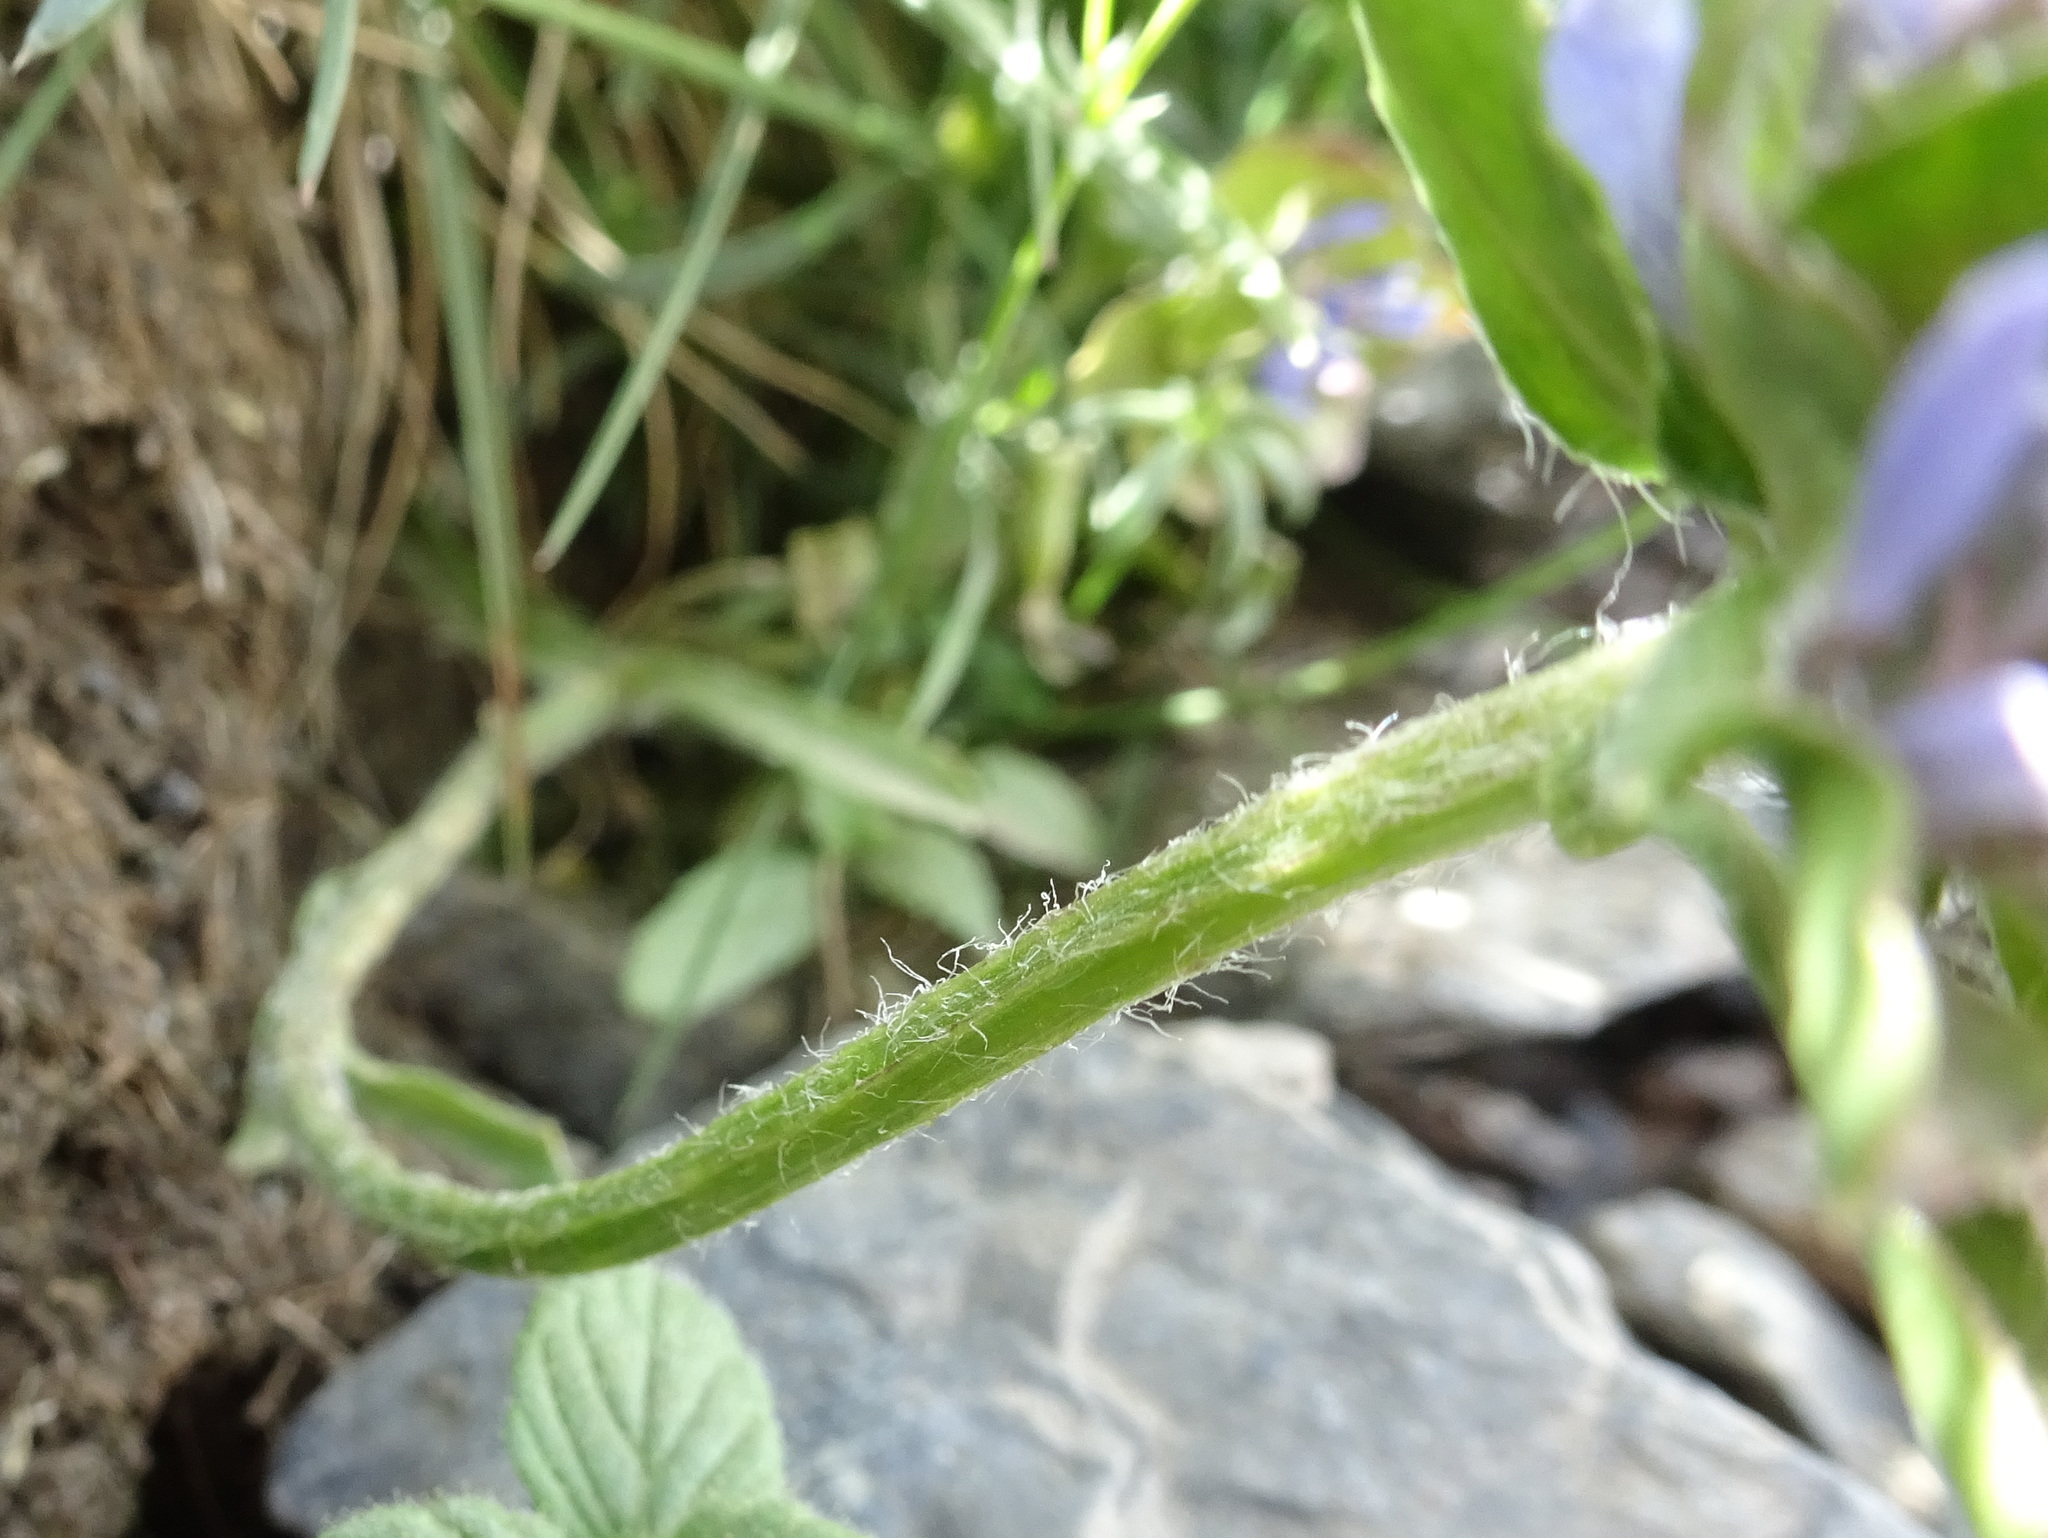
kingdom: Plantae
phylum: Tracheophyta
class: Magnoliopsida
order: Asterales
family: Campanulaceae
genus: Jasione
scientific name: Jasione crispa
